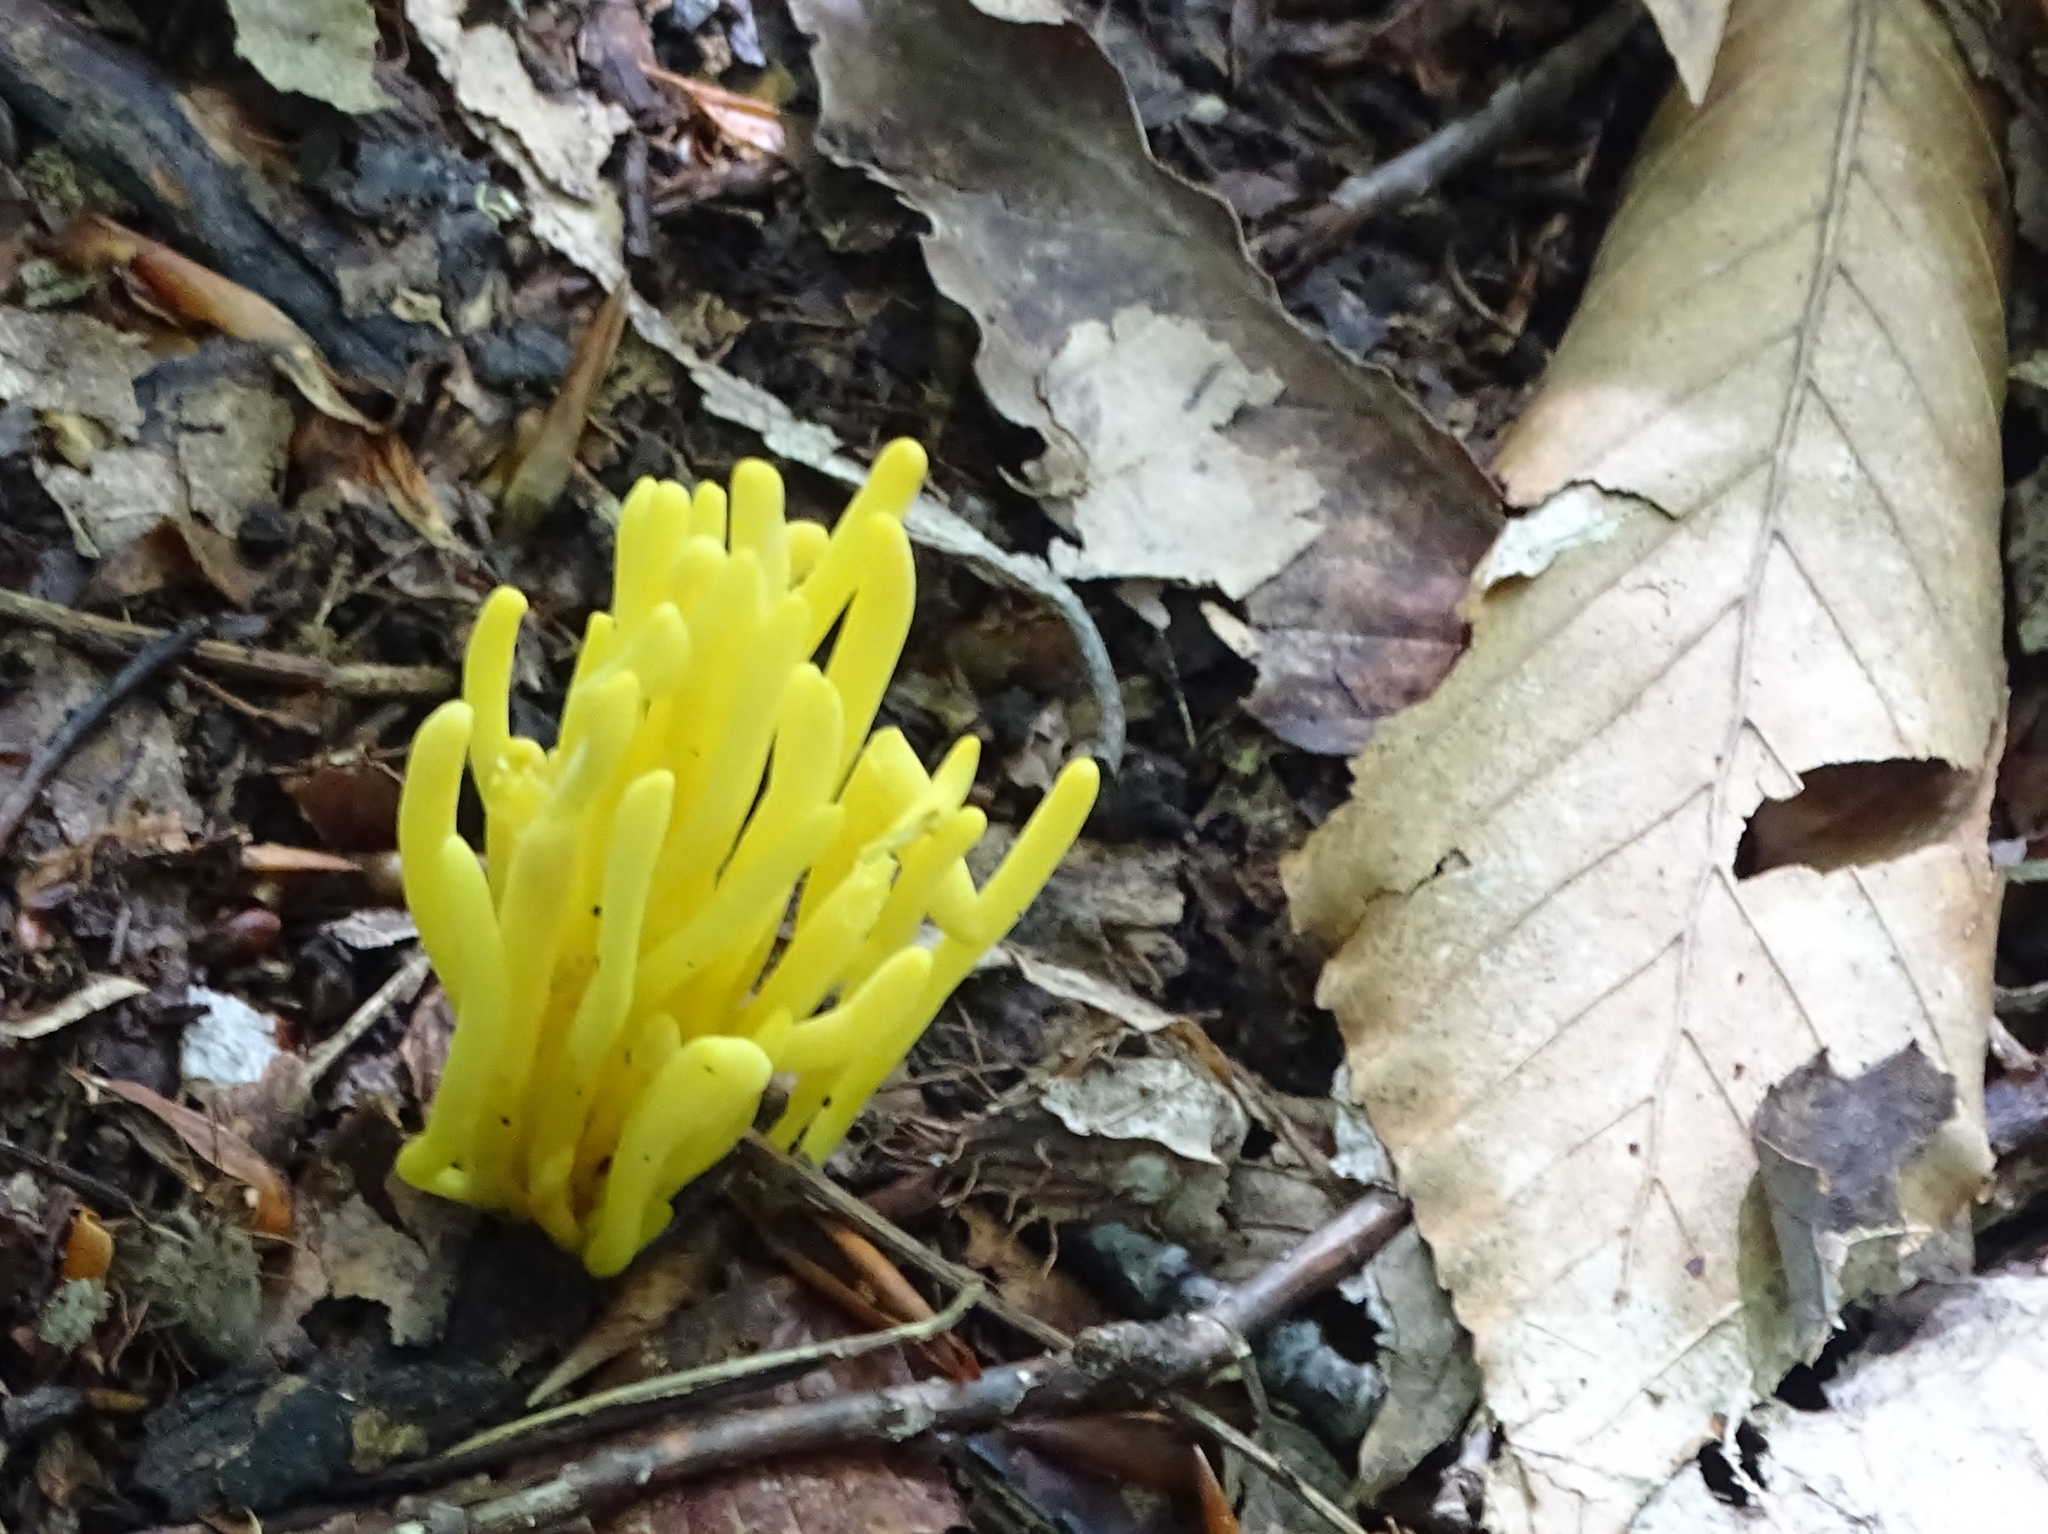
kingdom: Fungi
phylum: Basidiomycota
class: Agaricomycetes
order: Agaricales
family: Clavariaceae
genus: Clavulinopsis
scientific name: Clavulinopsis fusiformis
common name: Golden spindles
